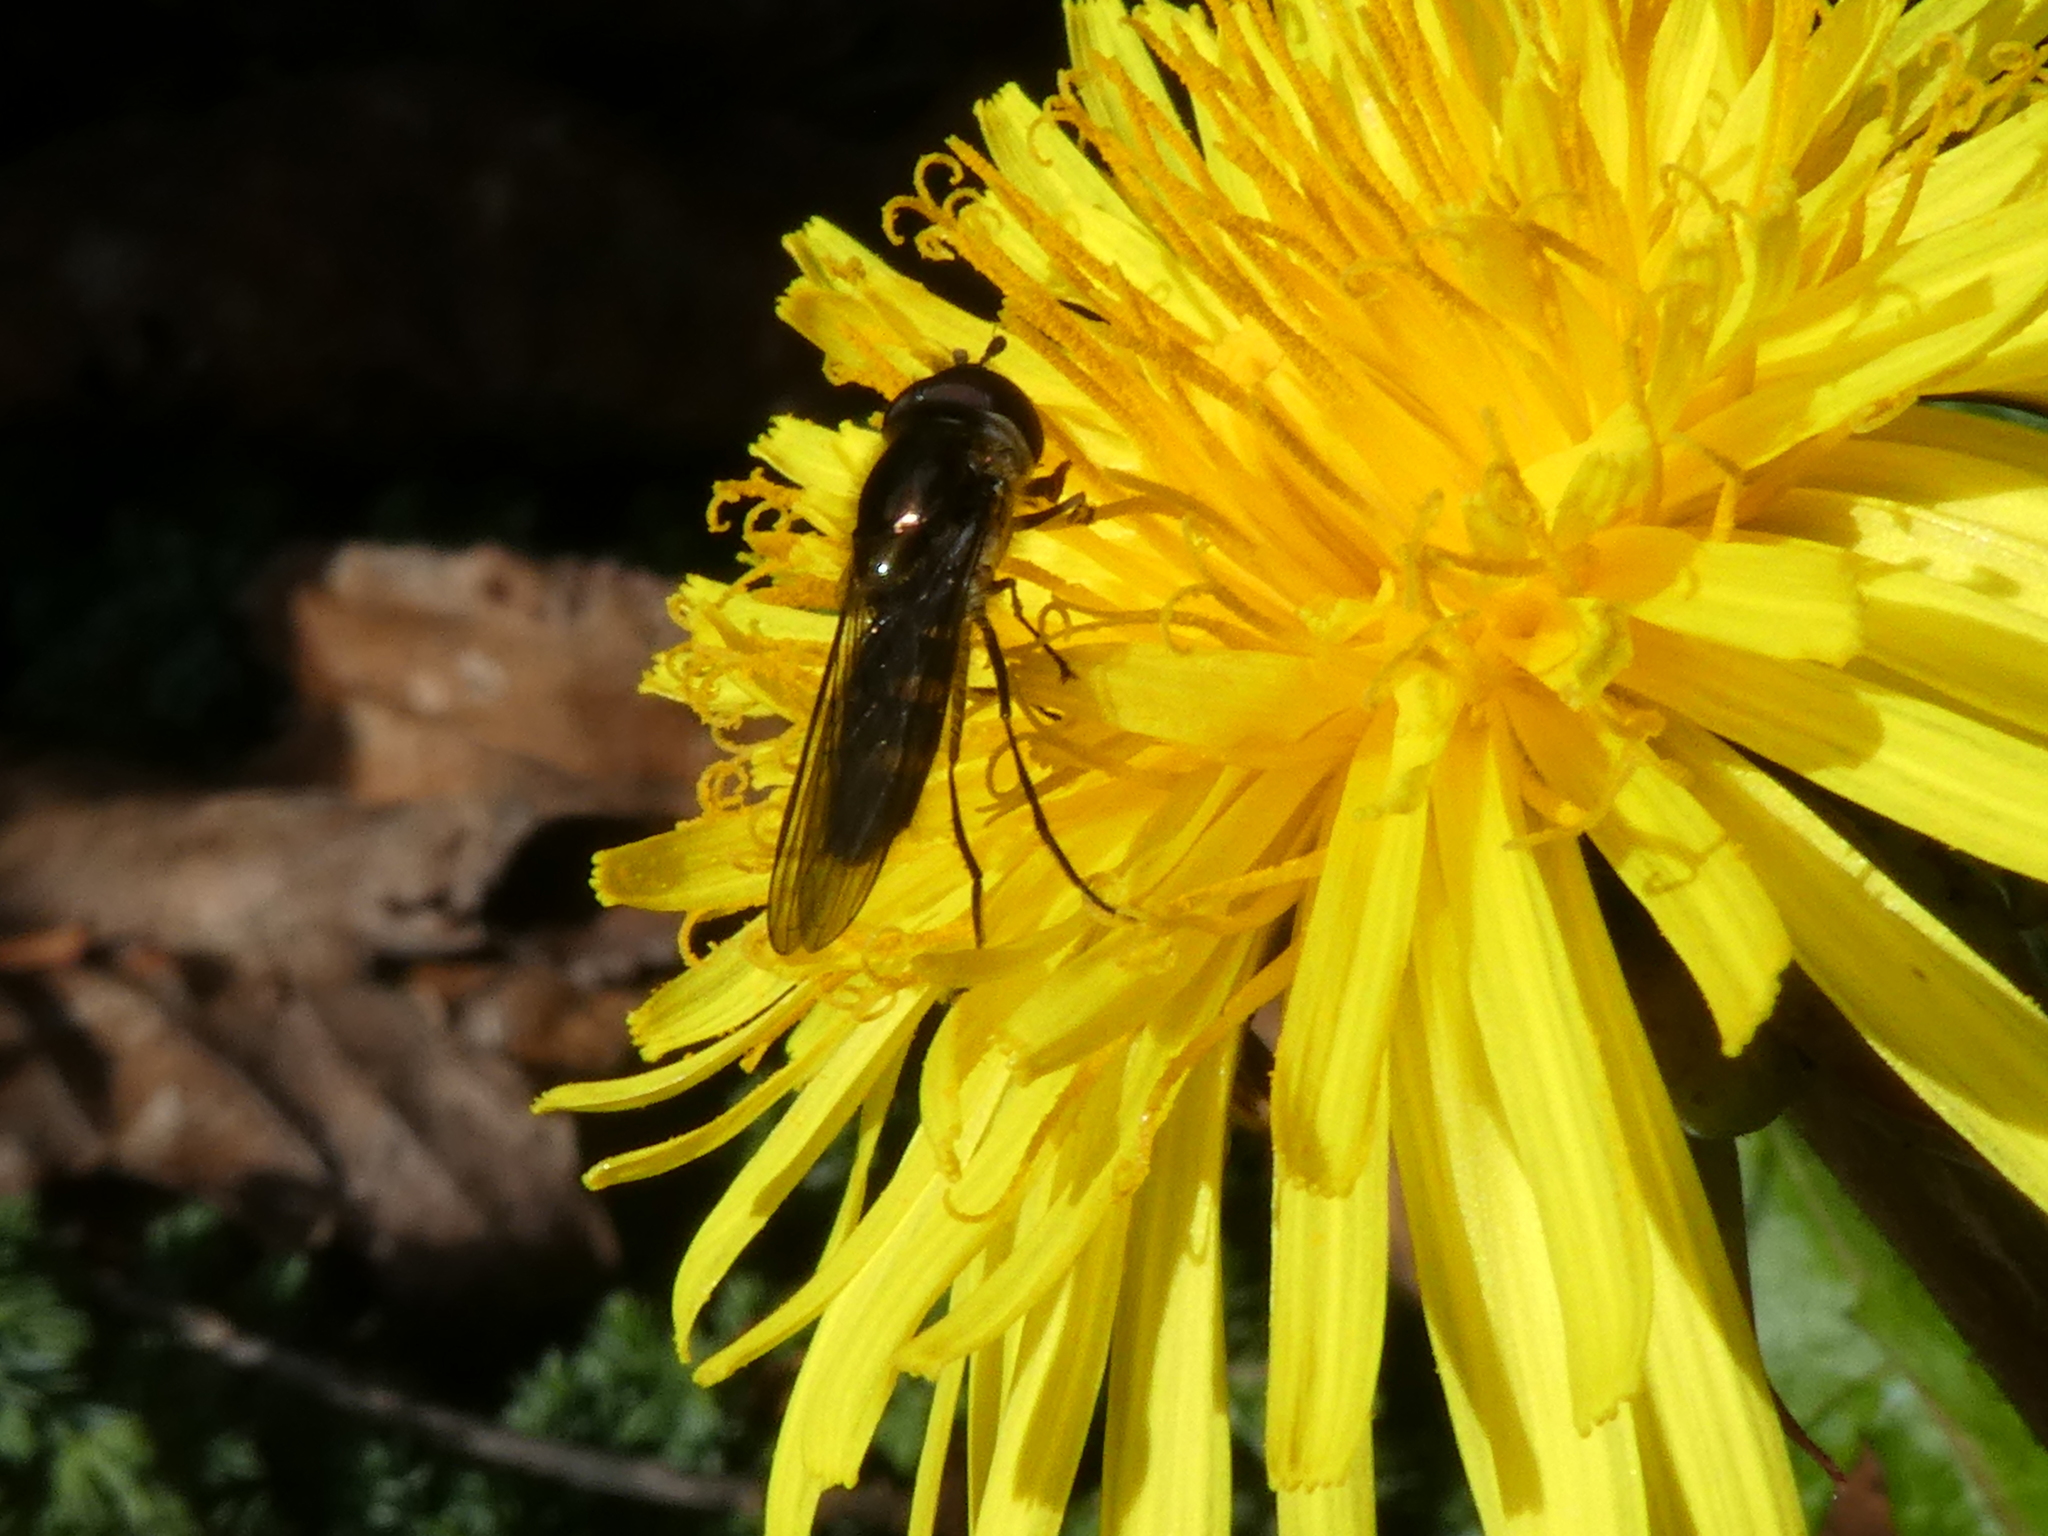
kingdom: Animalia
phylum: Arthropoda
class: Insecta
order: Diptera
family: Syrphidae
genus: Melangyna
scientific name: Melangyna novaezelandiae
